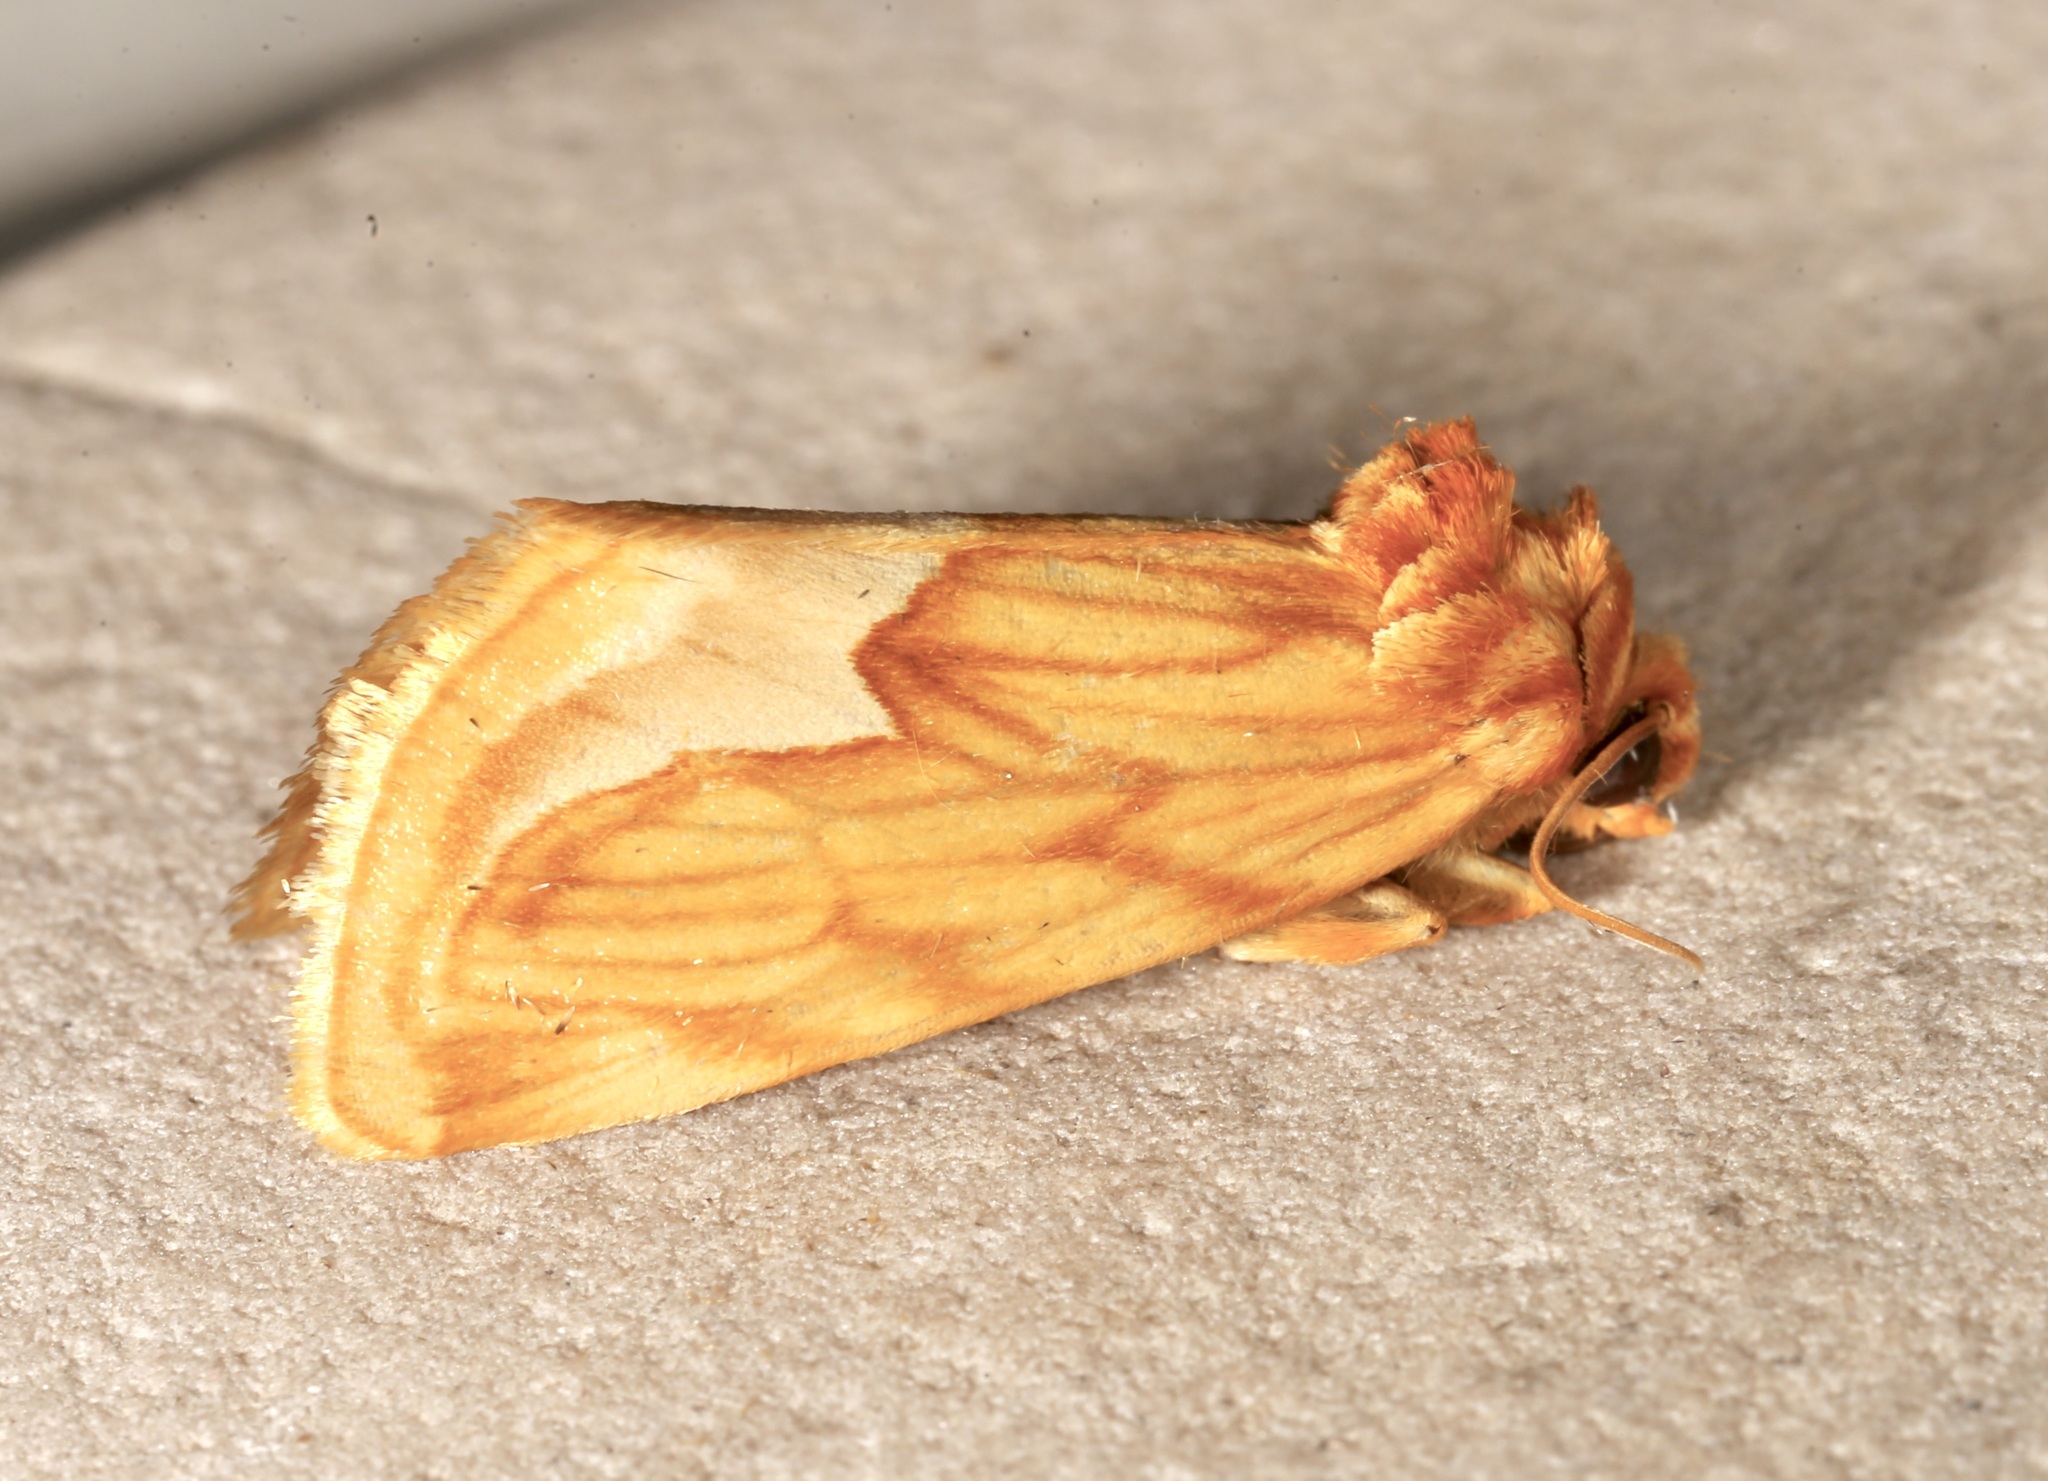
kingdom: Animalia
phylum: Arthropoda
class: Insecta
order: Lepidoptera
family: Noctuidae
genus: Cirrhophanus
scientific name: Cirrhophanus dyari
